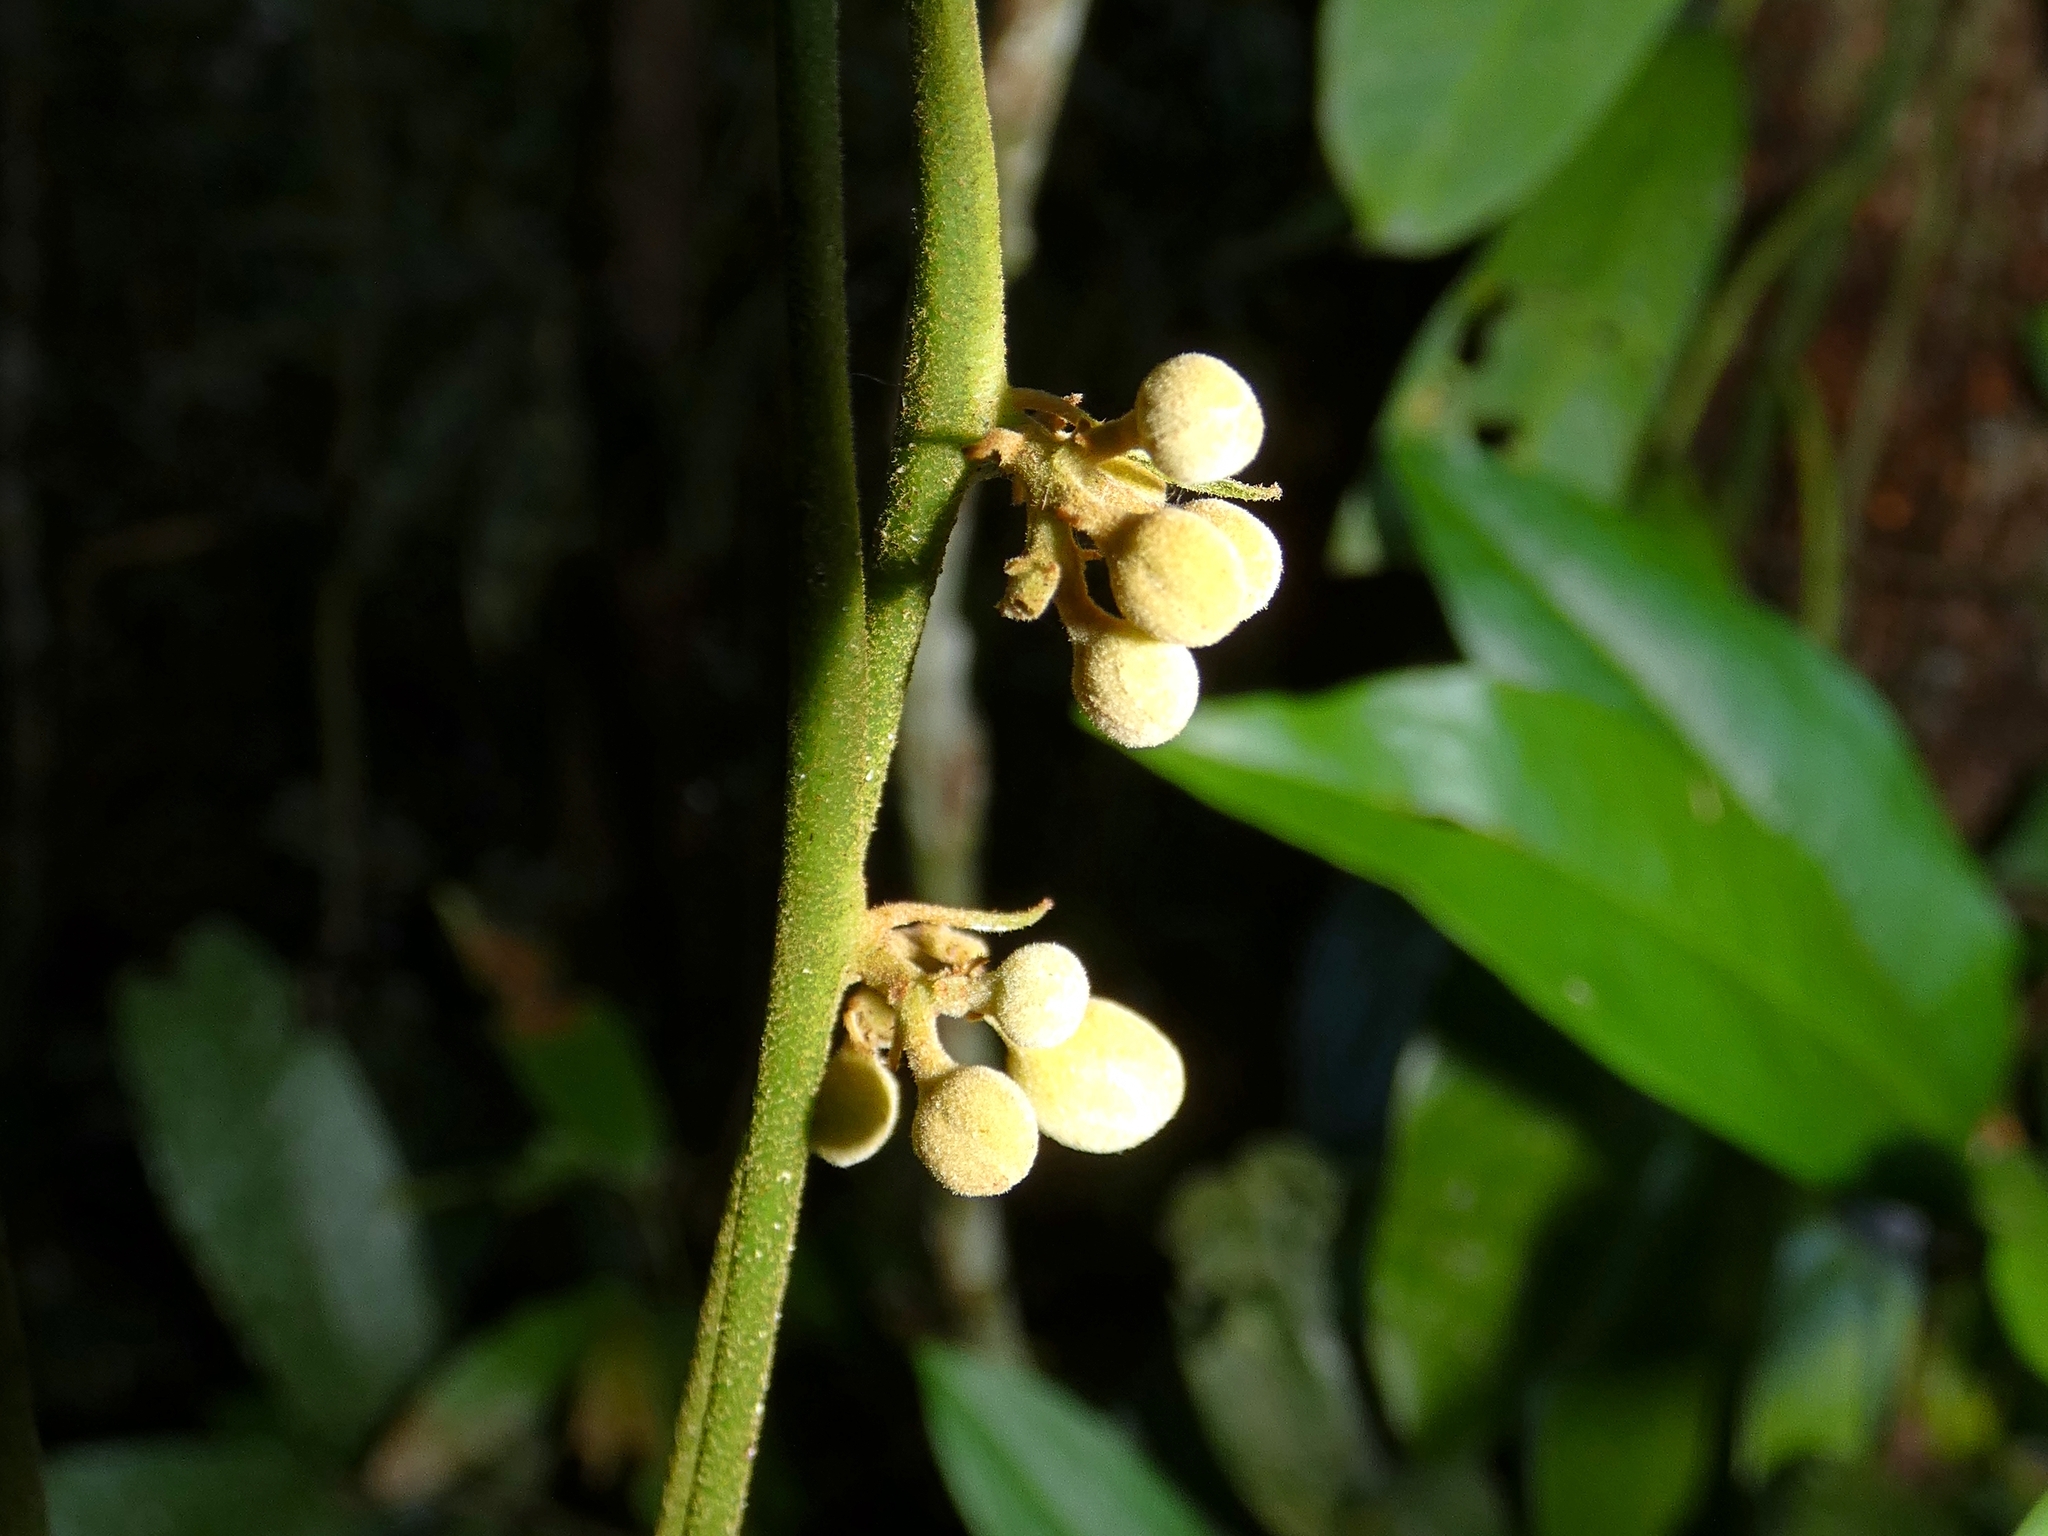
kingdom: Plantae
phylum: Tracheophyta
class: Magnoliopsida
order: Sapindales
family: Sapindaceae
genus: Harpullia
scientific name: Harpullia rhyticarpa
